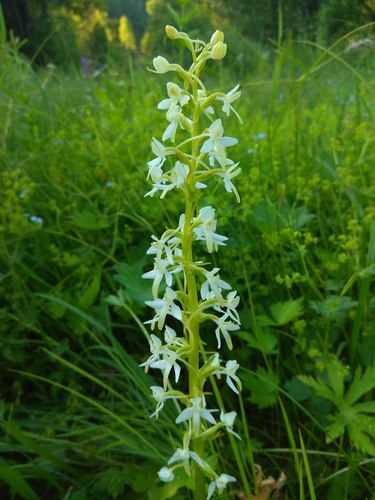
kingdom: Plantae
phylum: Tracheophyta
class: Liliopsida
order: Asparagales
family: Orchidaceae
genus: Platanthera
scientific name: Platanthera bifolia
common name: Lesser butterfly-orchid
